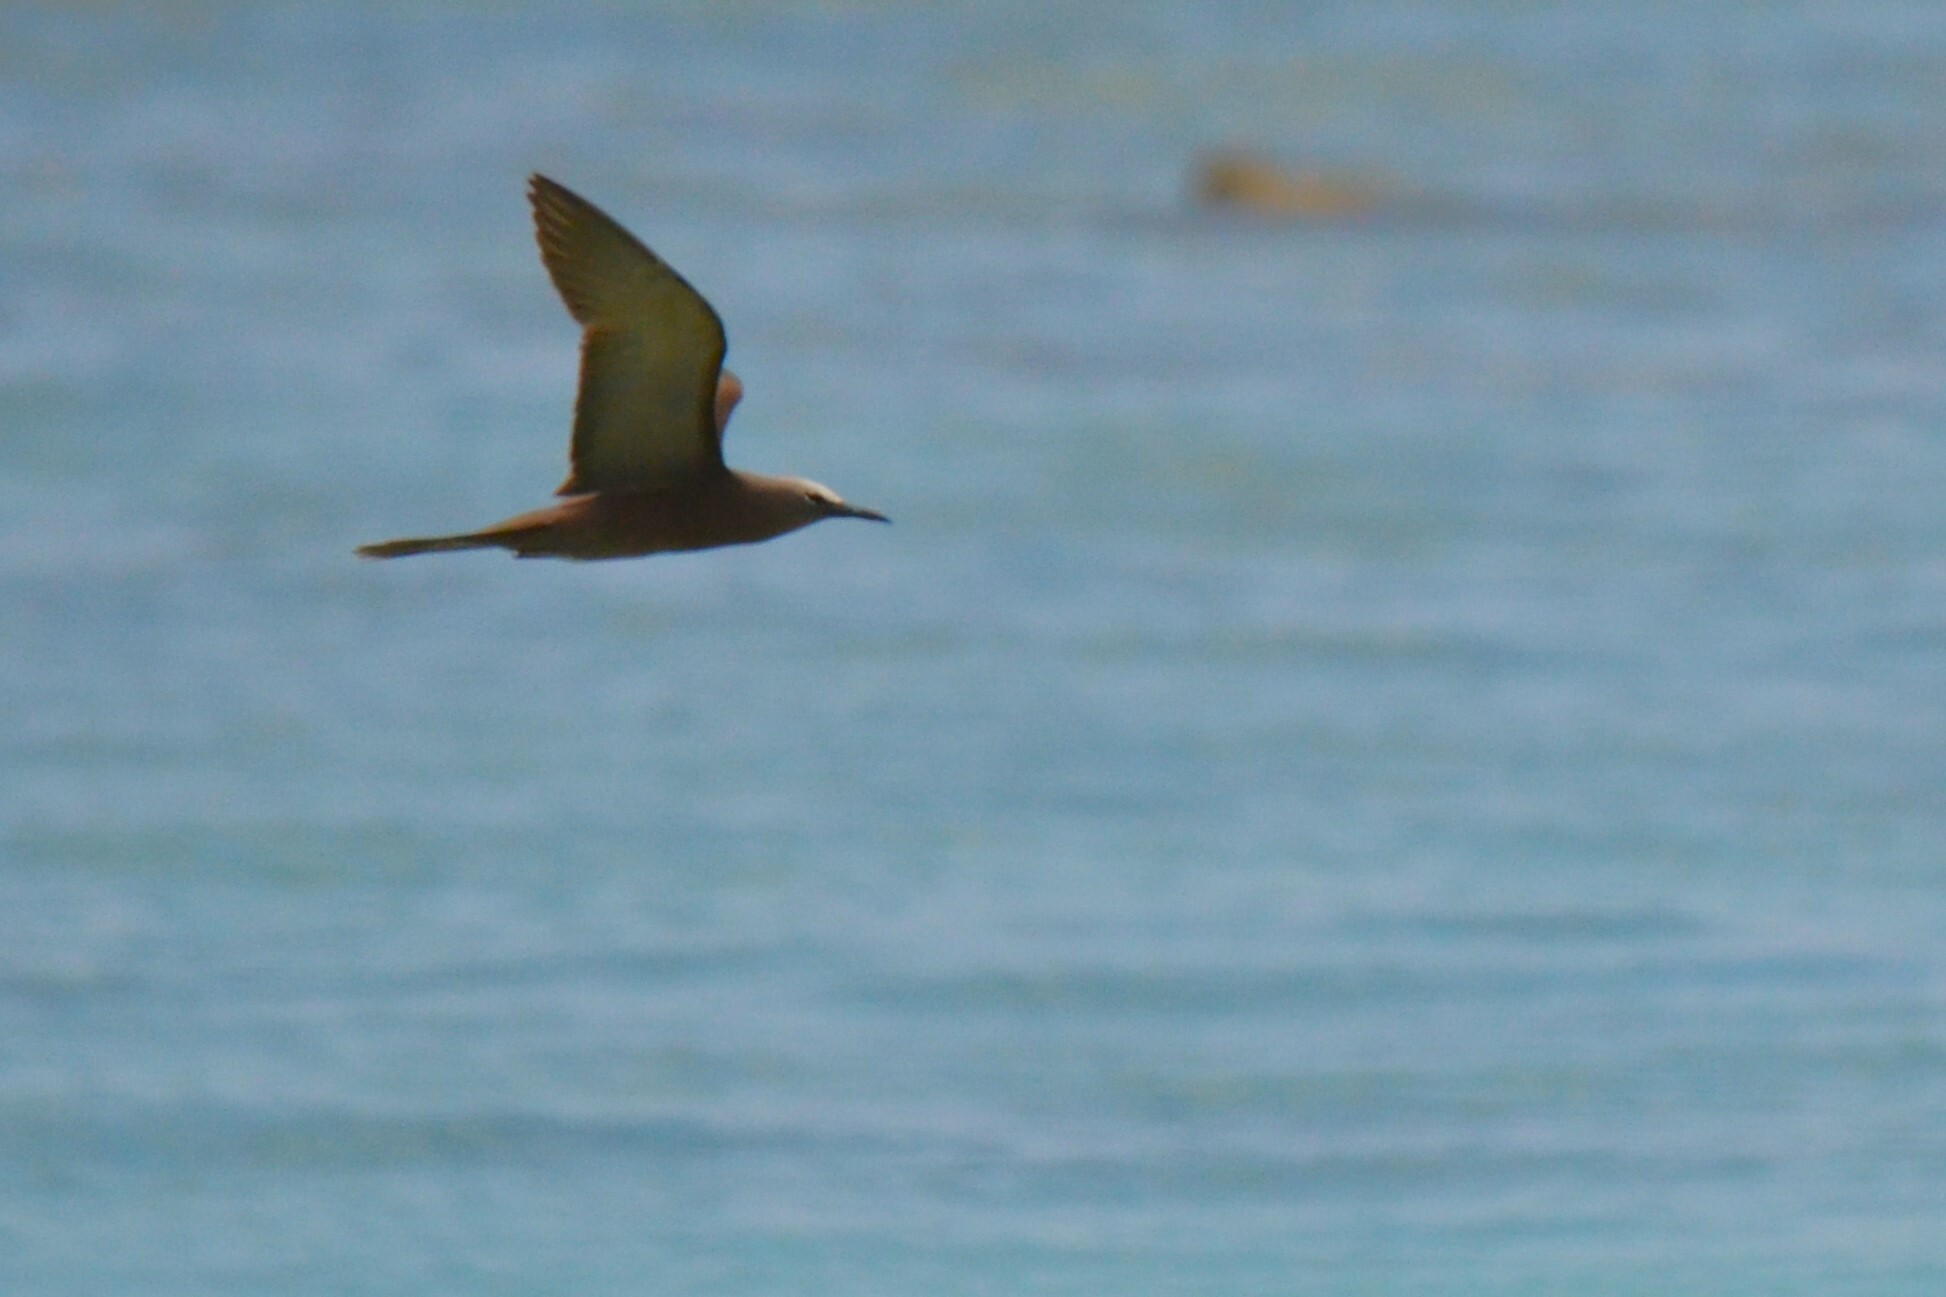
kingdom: Animalia
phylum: Chordata
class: Aves
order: Charadriiformes
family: Laridae
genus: Anous
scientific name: Anous stolidus
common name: Brown noddy
